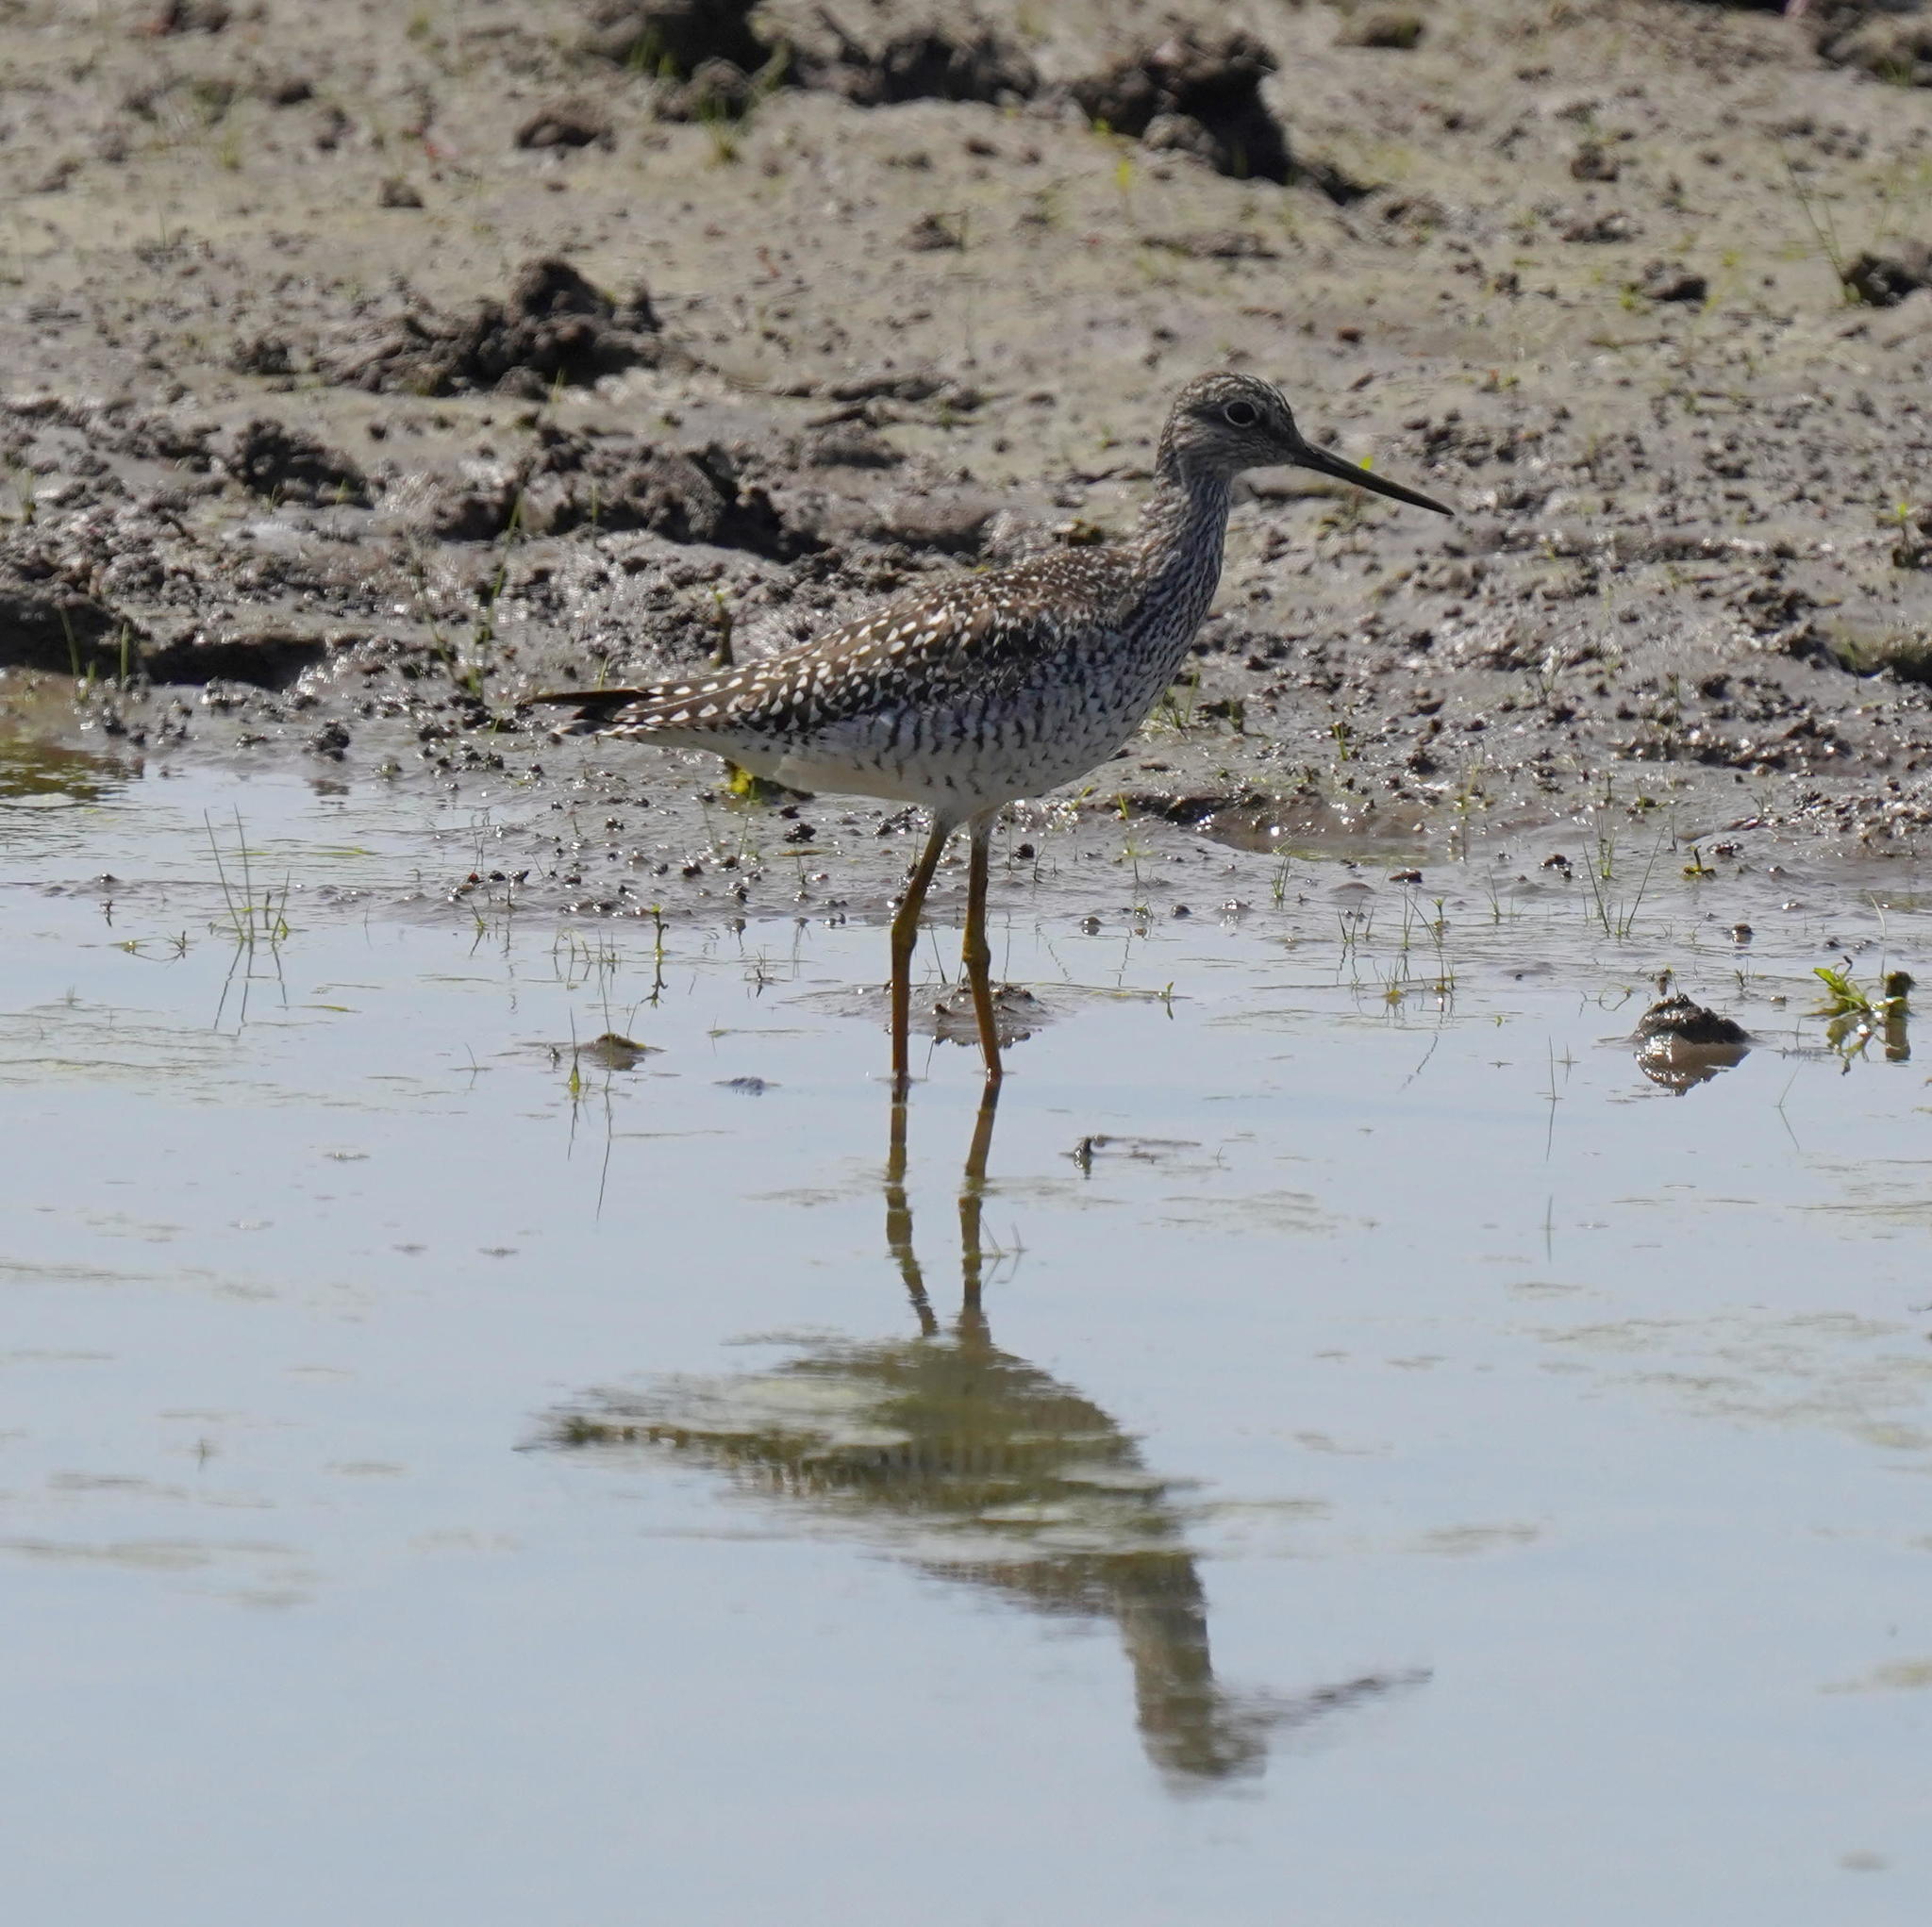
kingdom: Animalia
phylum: Chordata
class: Aves
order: Charadriiformes
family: Scolopacidae
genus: Tringa
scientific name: Tringa melanoleuca
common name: Greater yellowlegs
